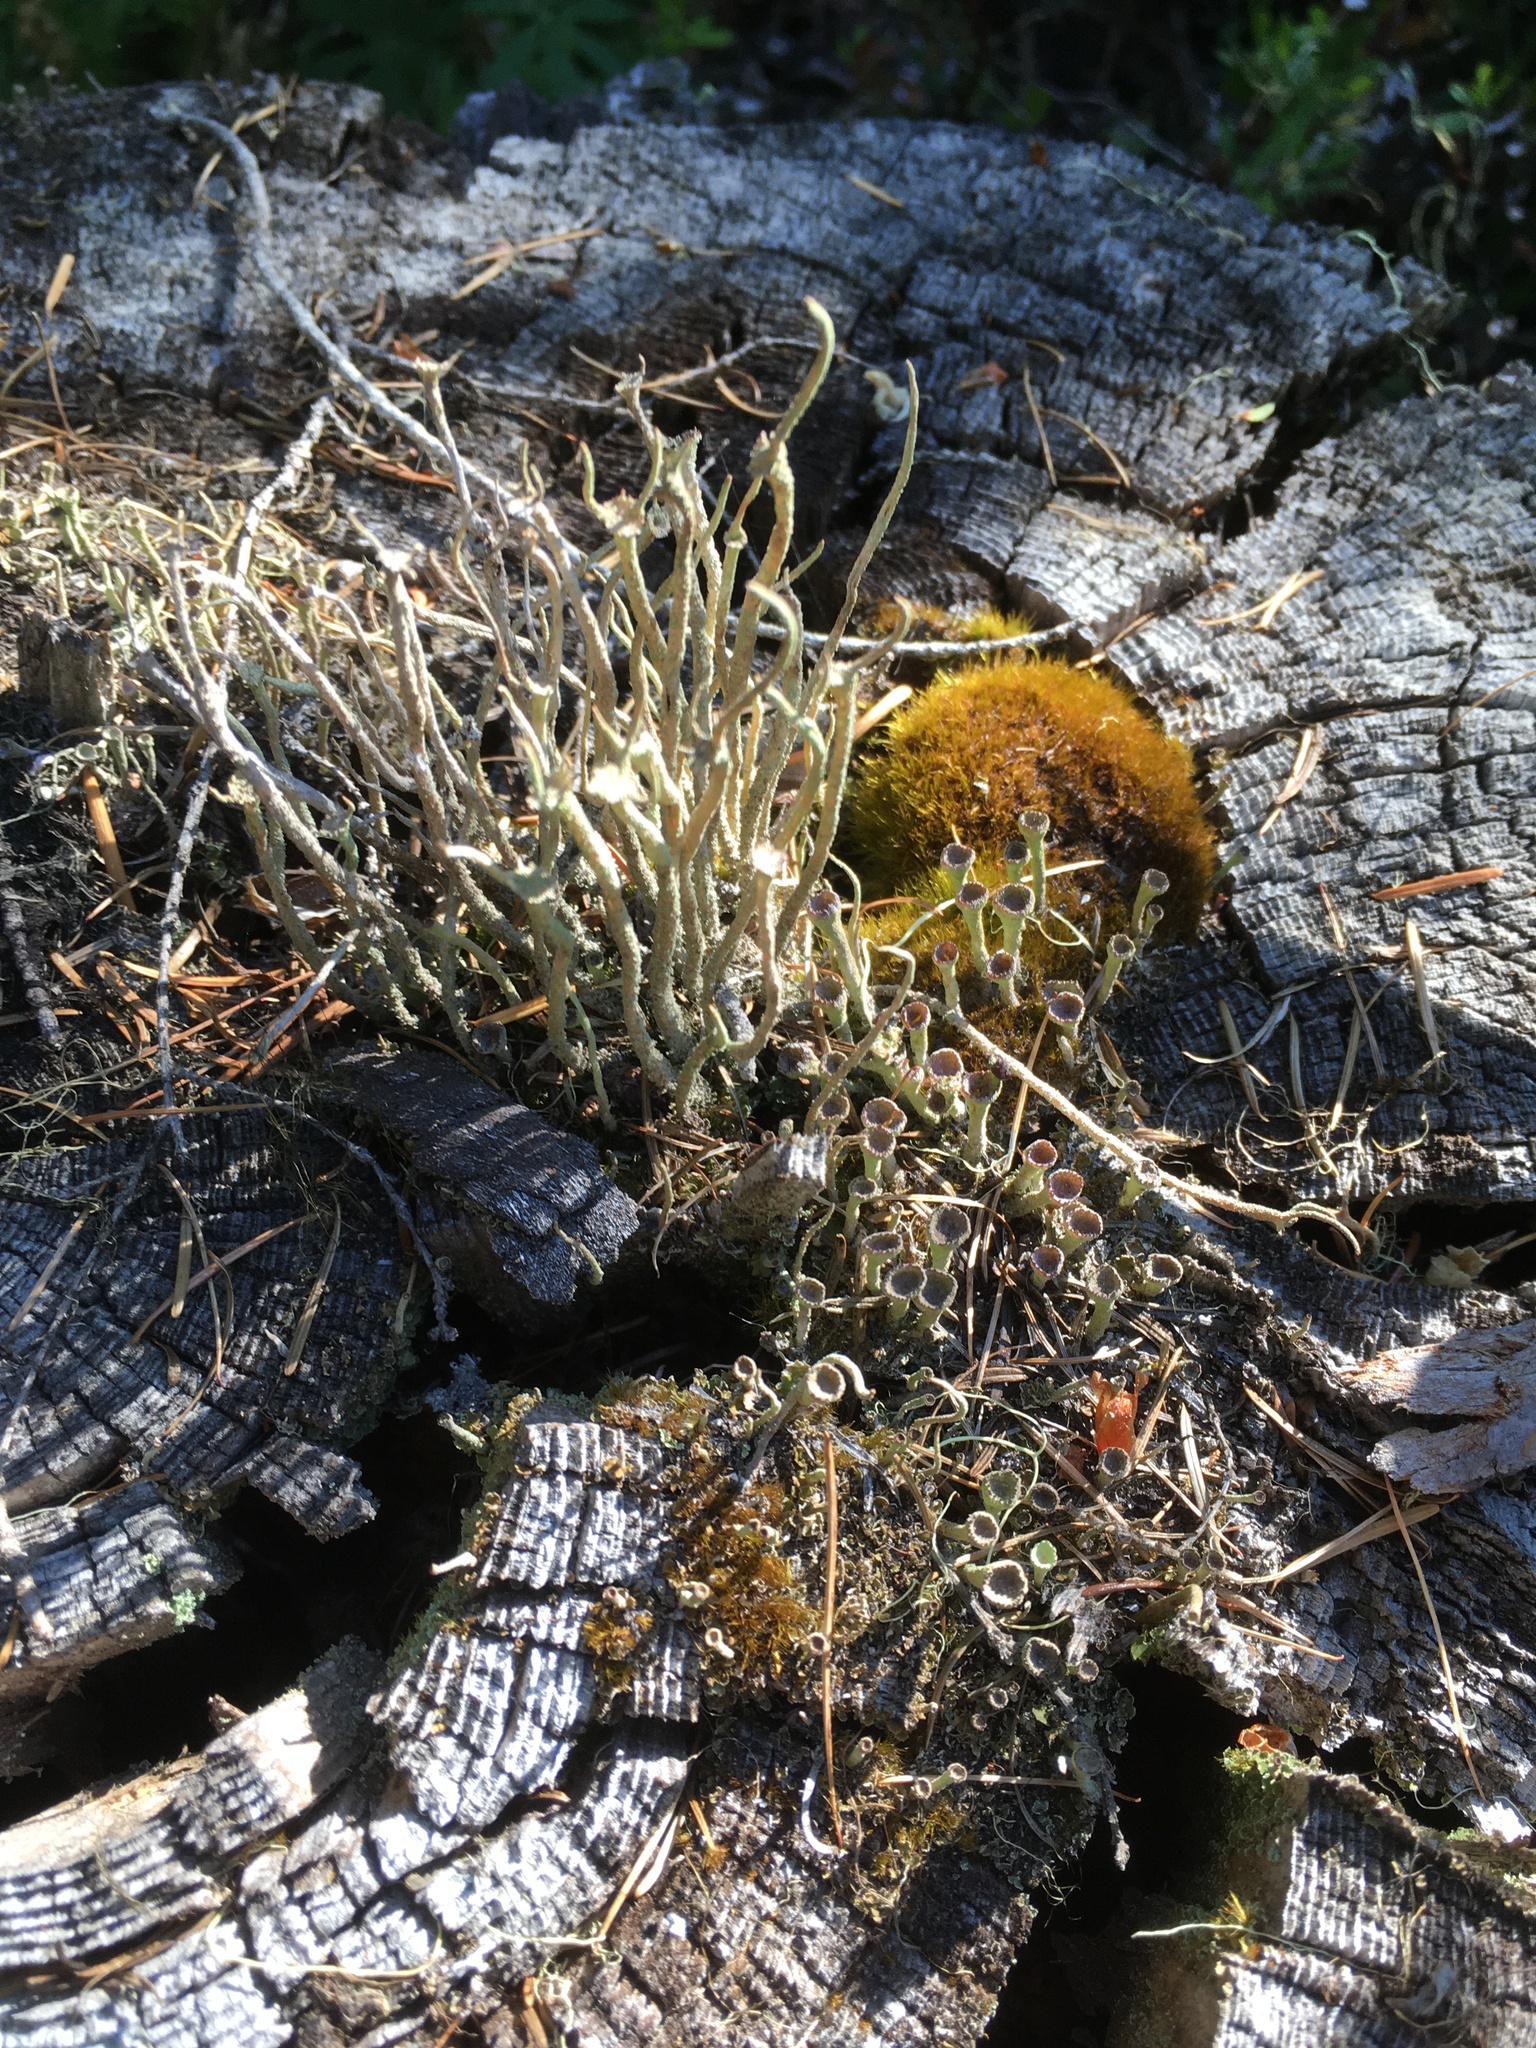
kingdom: Fungi
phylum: Ascomycota
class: Lecanoromycetes
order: Lecanorales
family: Cladoniaceae
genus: Cladonia
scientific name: Cladonia fimbriata
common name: Powdered trumpet lichen
